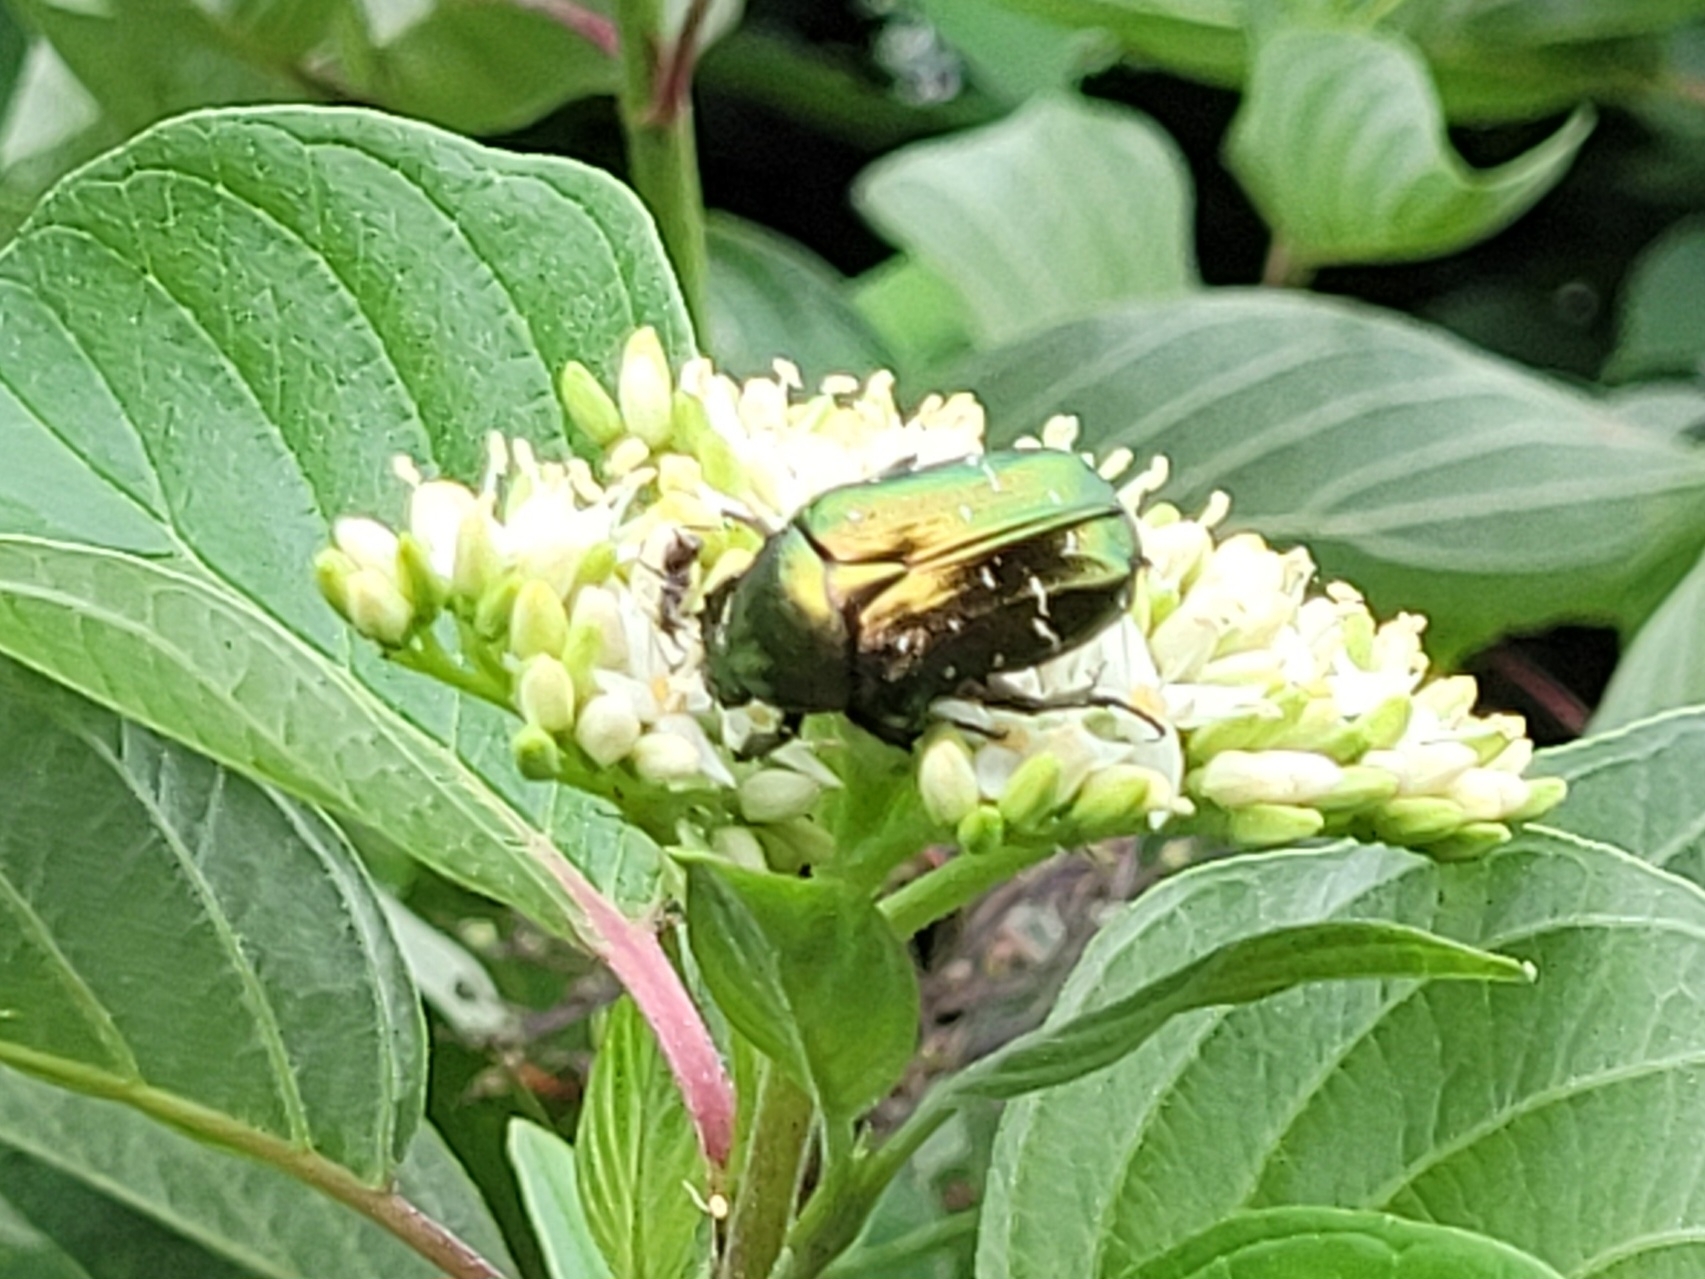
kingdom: Animalia
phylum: Arthropoda
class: Insecta
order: Coleoptera
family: Scarabaeidae
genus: Cetonia
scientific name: Cetonia aurata
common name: Rose chafer
